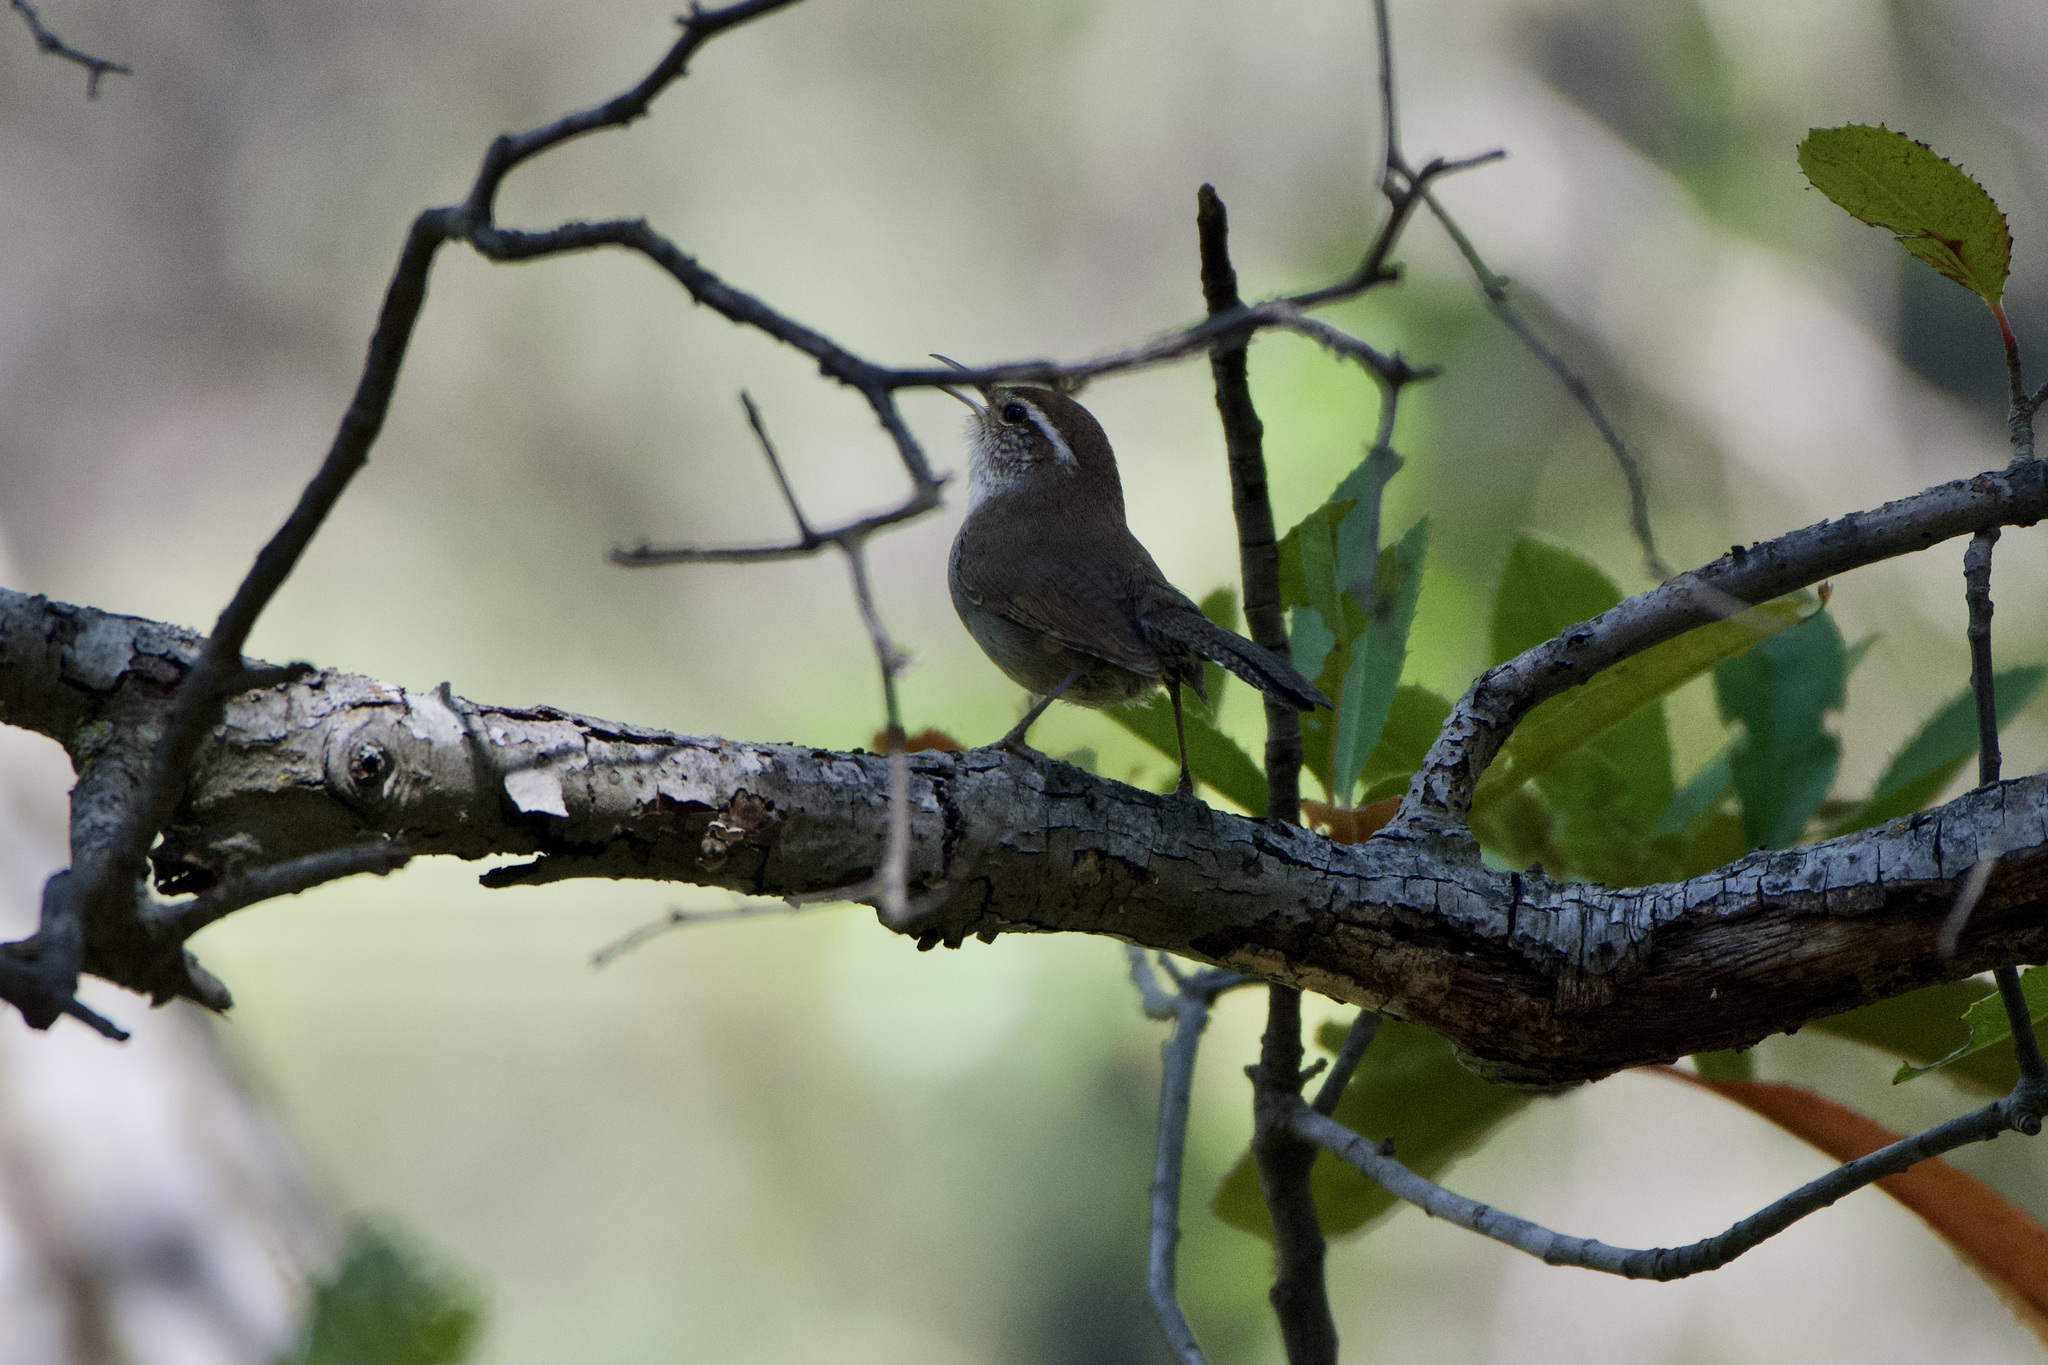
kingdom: Animalia
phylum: Chordata
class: Aves
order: Passeriformes
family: Troglodytidae
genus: Thryomanes
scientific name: Thryomanes bewickii
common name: Bewick's wren
